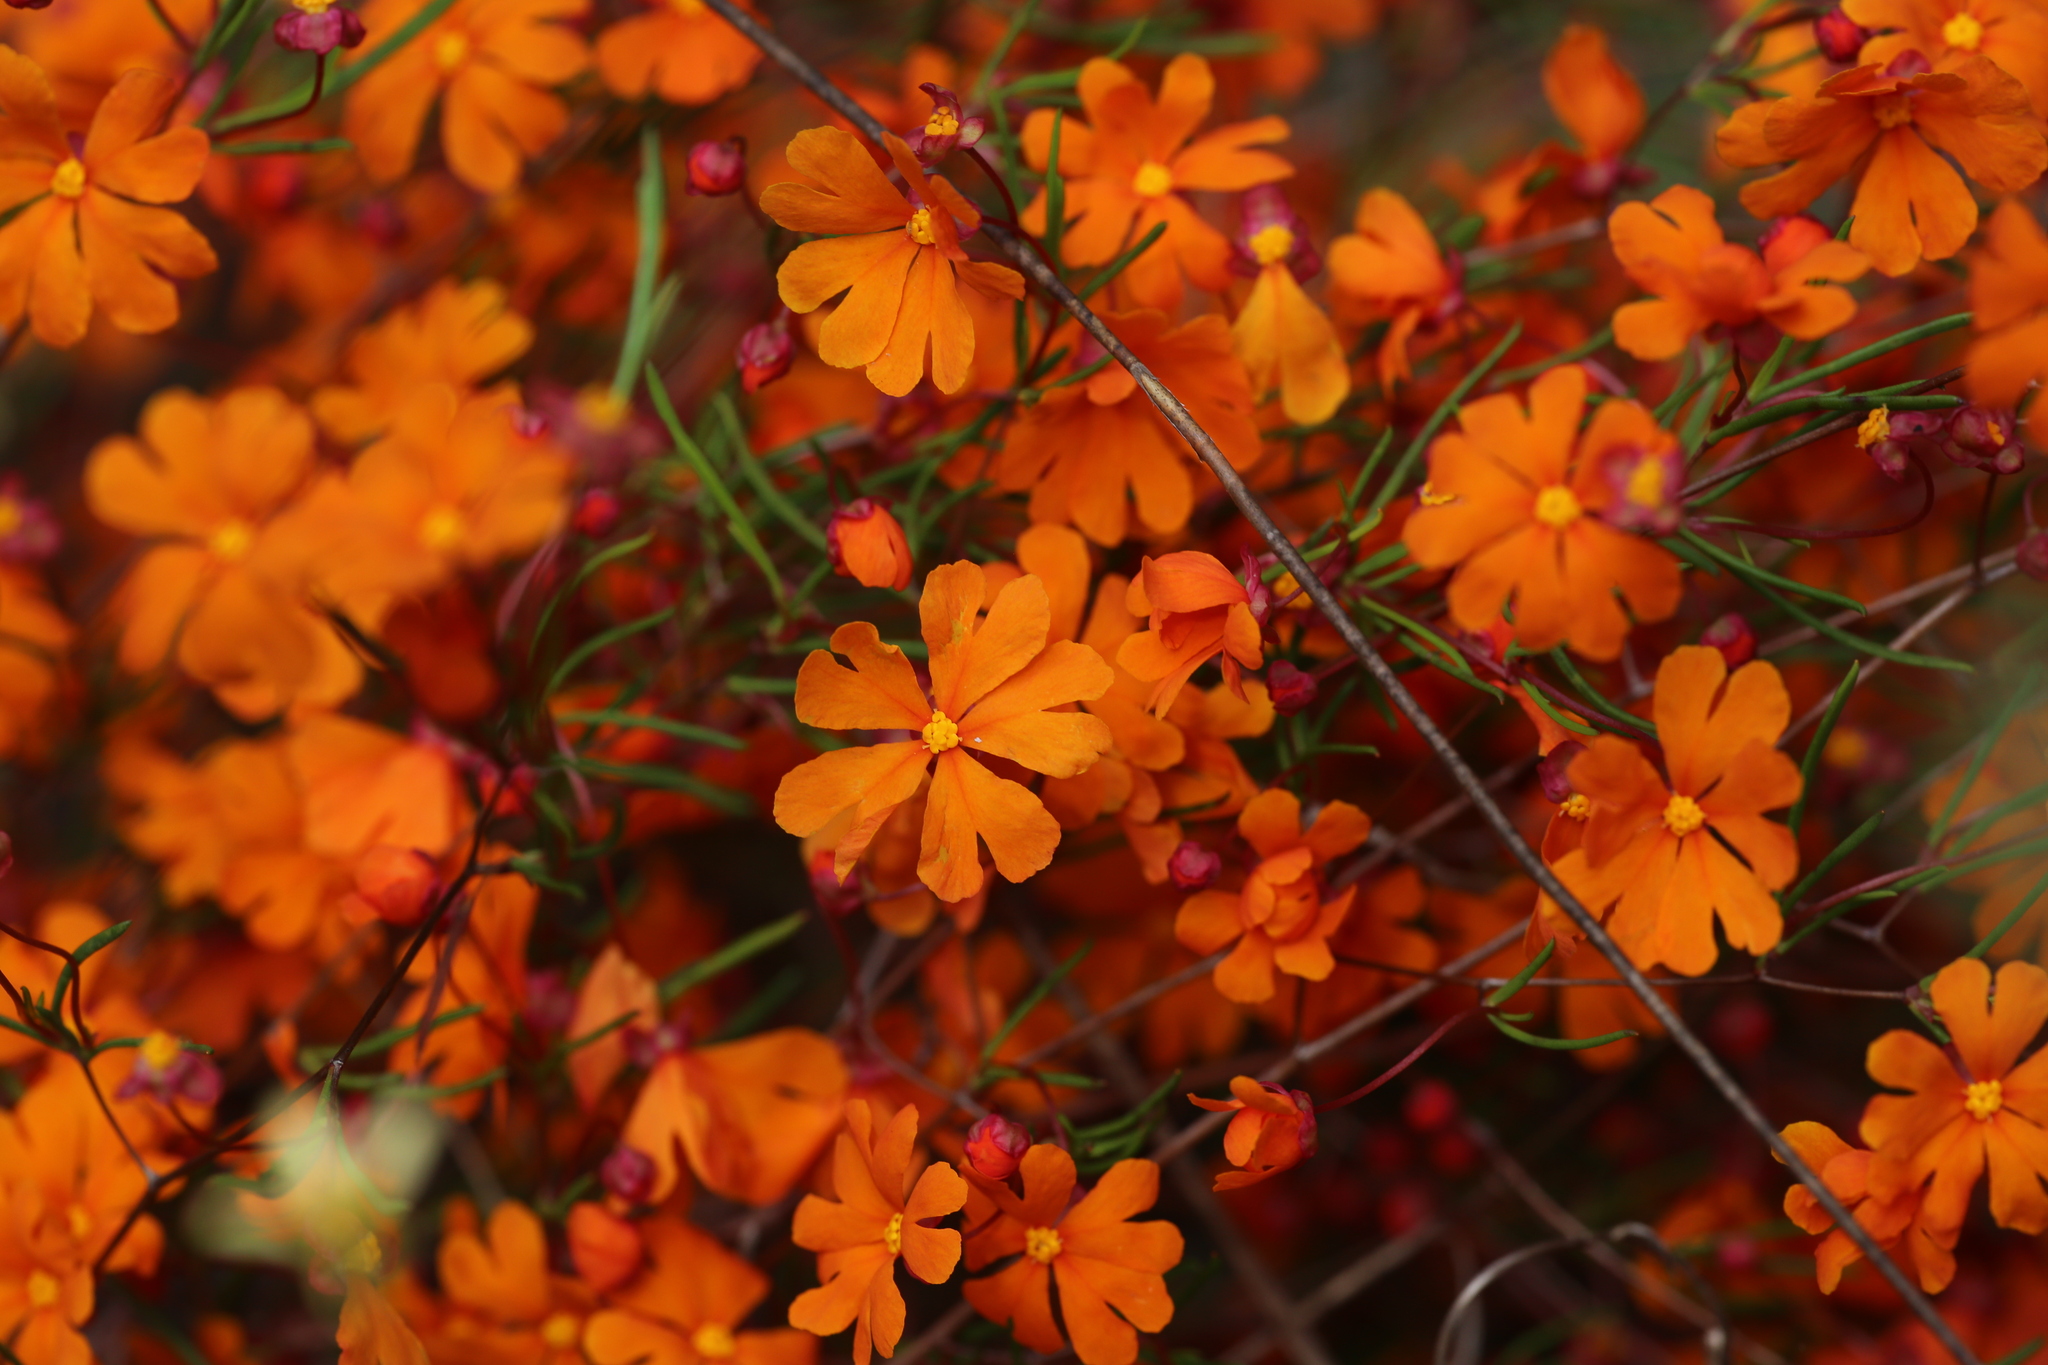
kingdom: Plantae
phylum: Tracheophyta
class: Magnoliopsida
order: Dilleniales
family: Dilleniaceae
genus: Hibbertia
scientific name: Hibbertia stellaris
